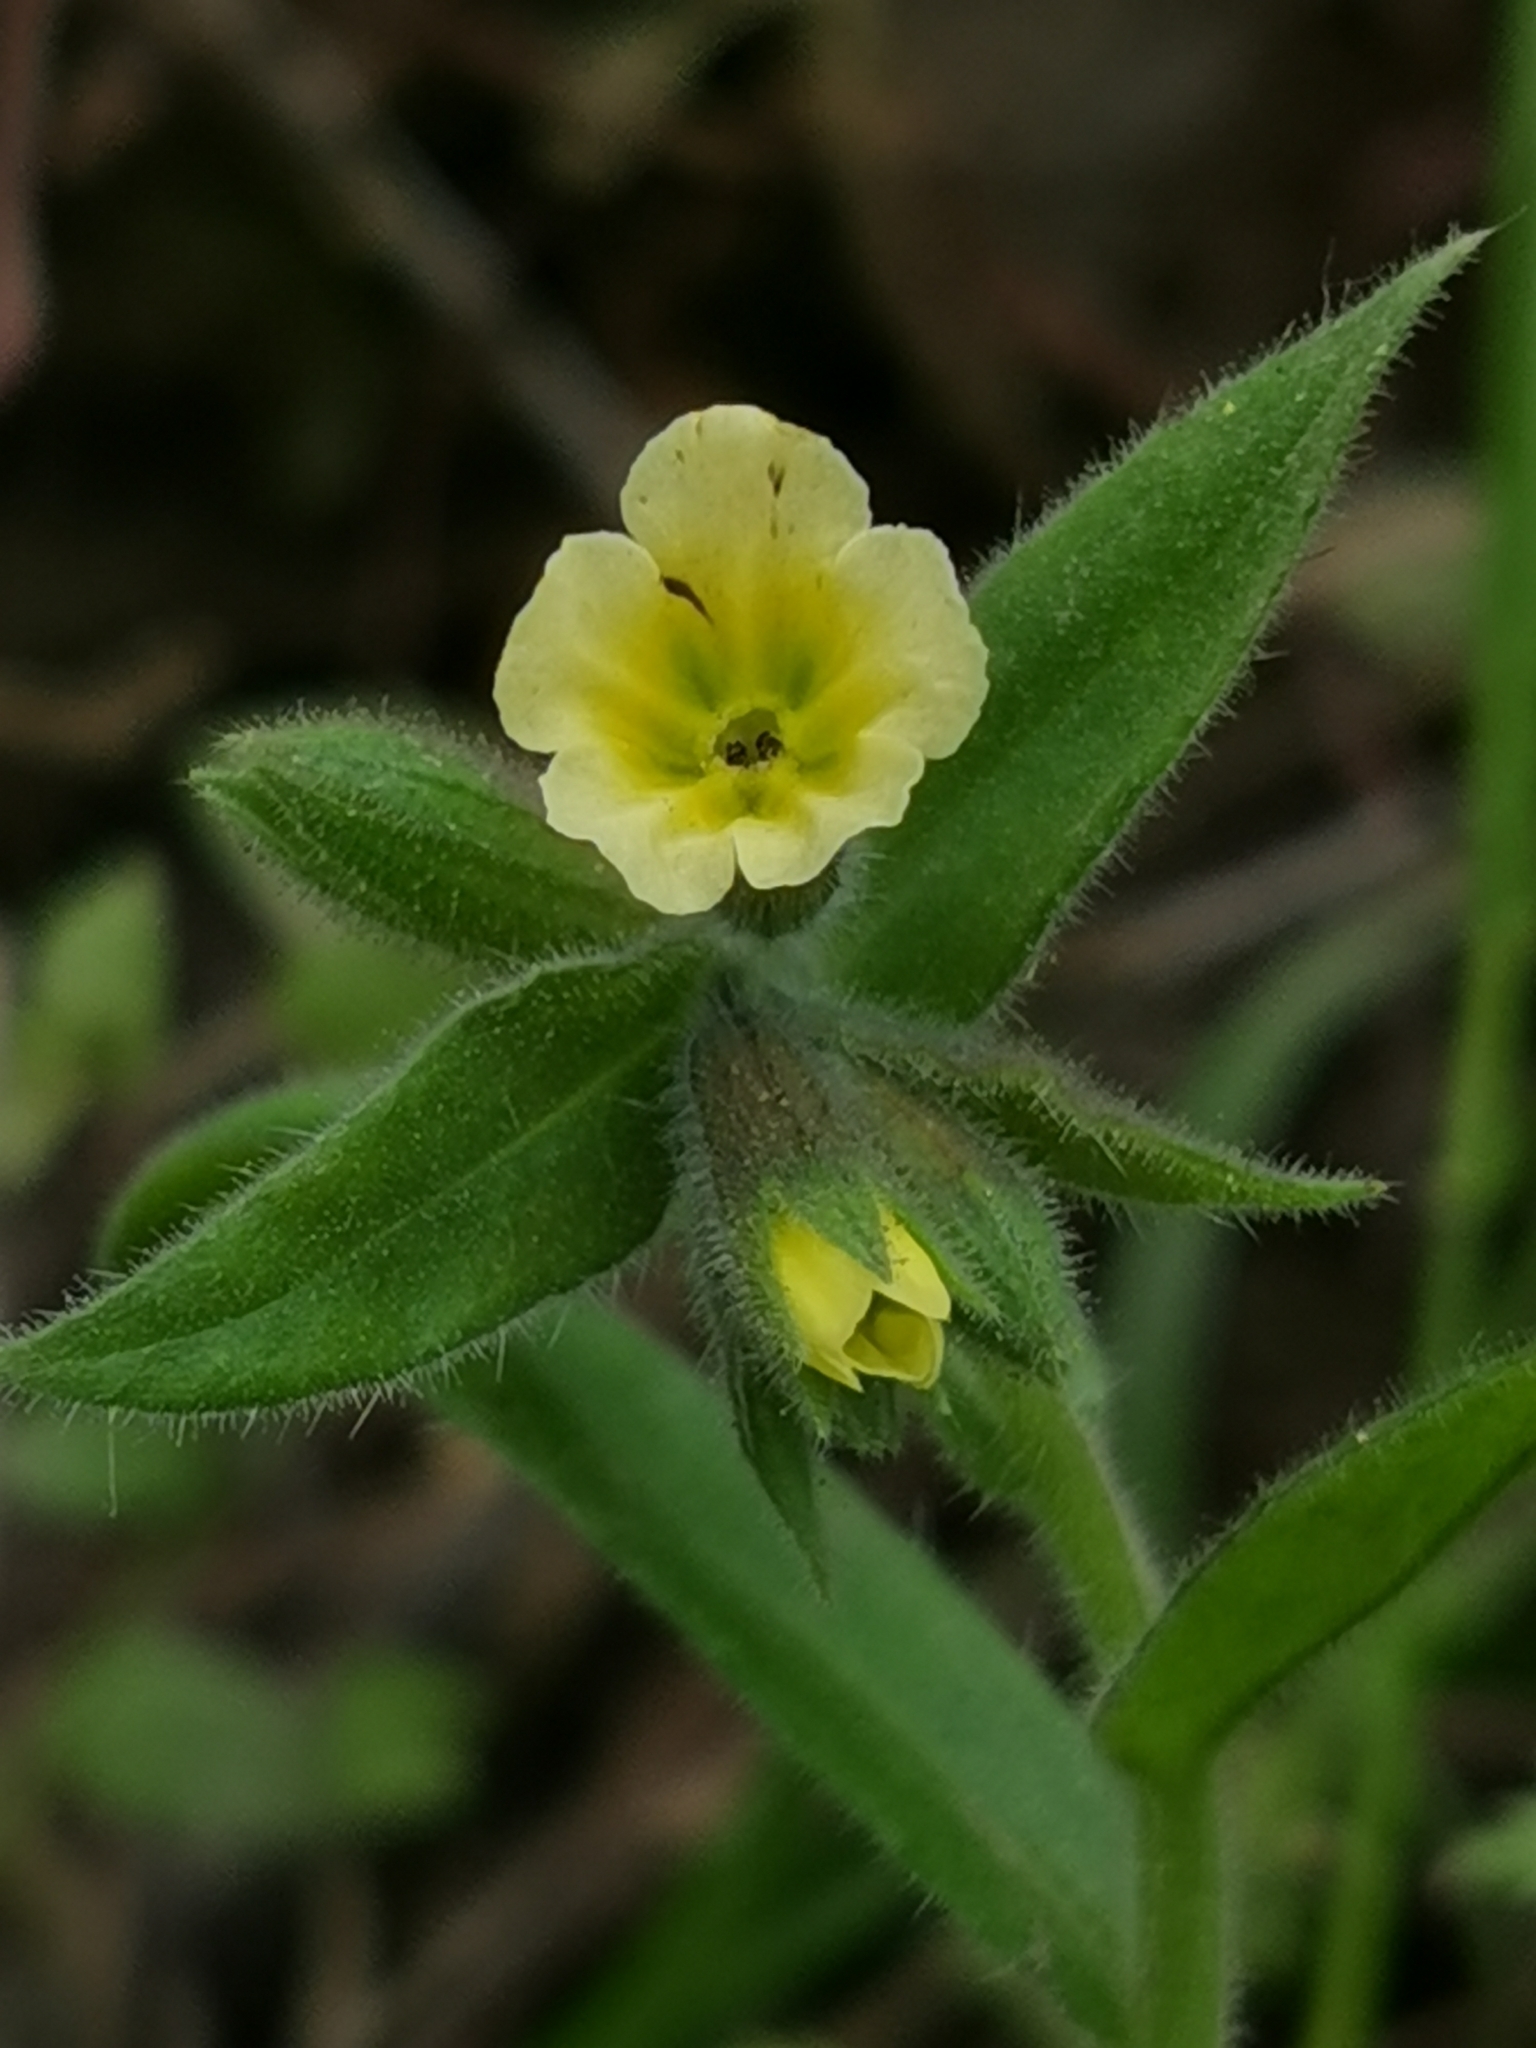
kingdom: Plantae
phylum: Tracheophyta
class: Magnoliopsida
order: Boraginales
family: Boraginaceae
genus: Nonea
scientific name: Nonea lutea
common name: Yellow nonea
